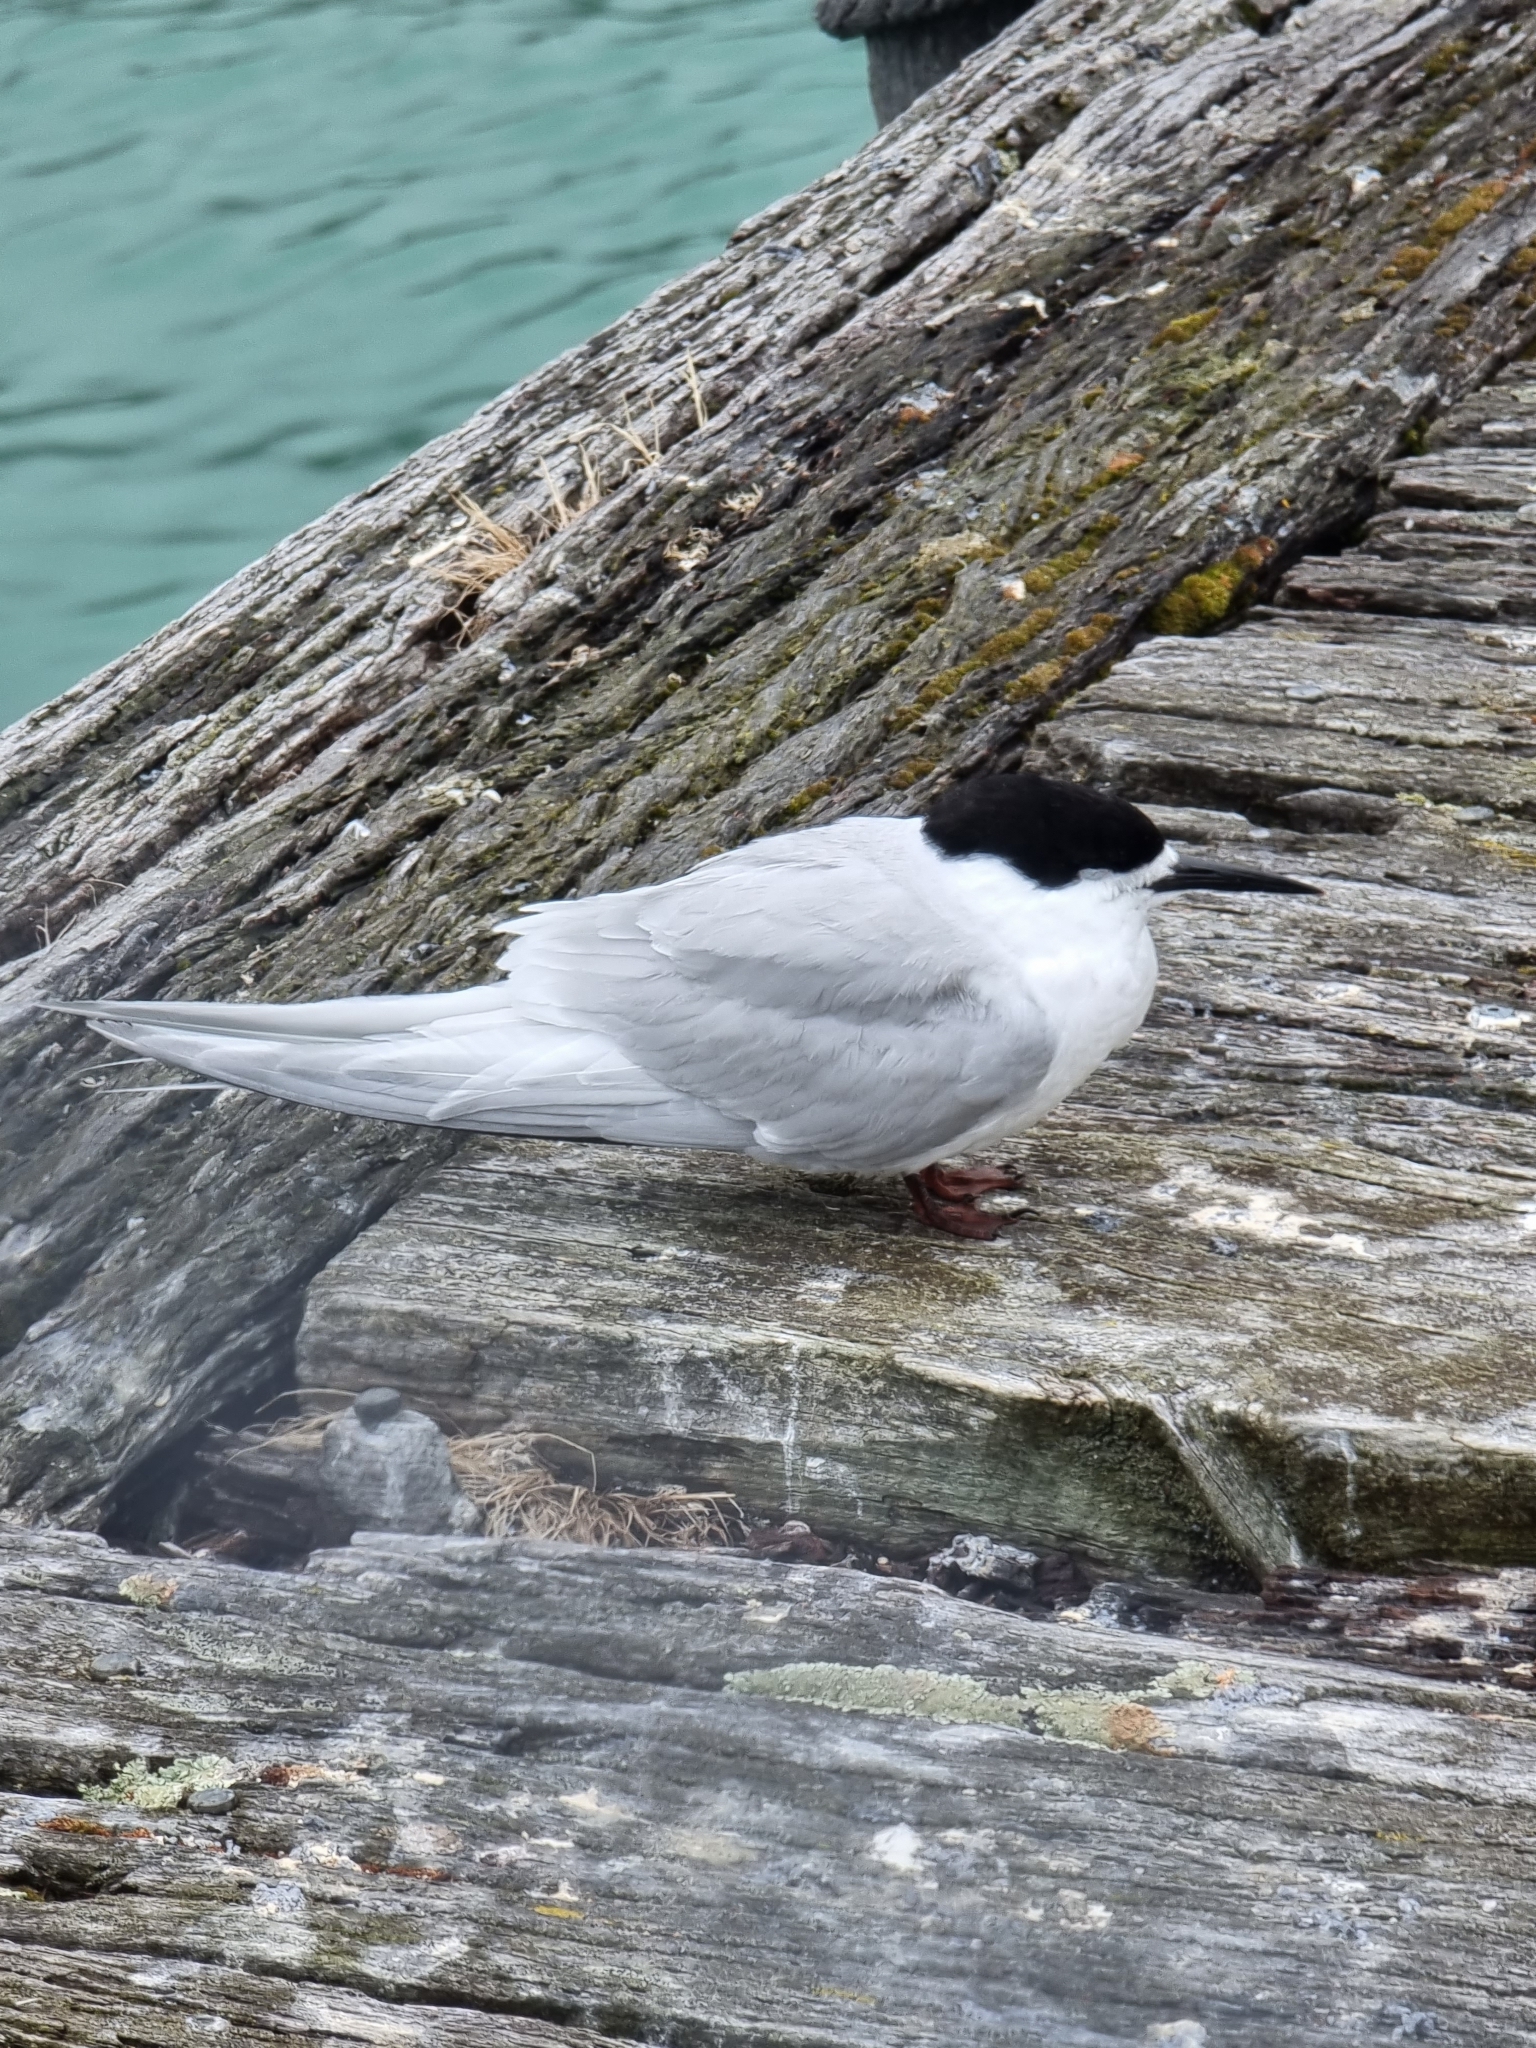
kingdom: Animalia
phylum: Chordata
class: Aves
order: Charadriiformes
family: Laridae
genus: Sterna
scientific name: Sterna striata
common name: White-fronted tern
